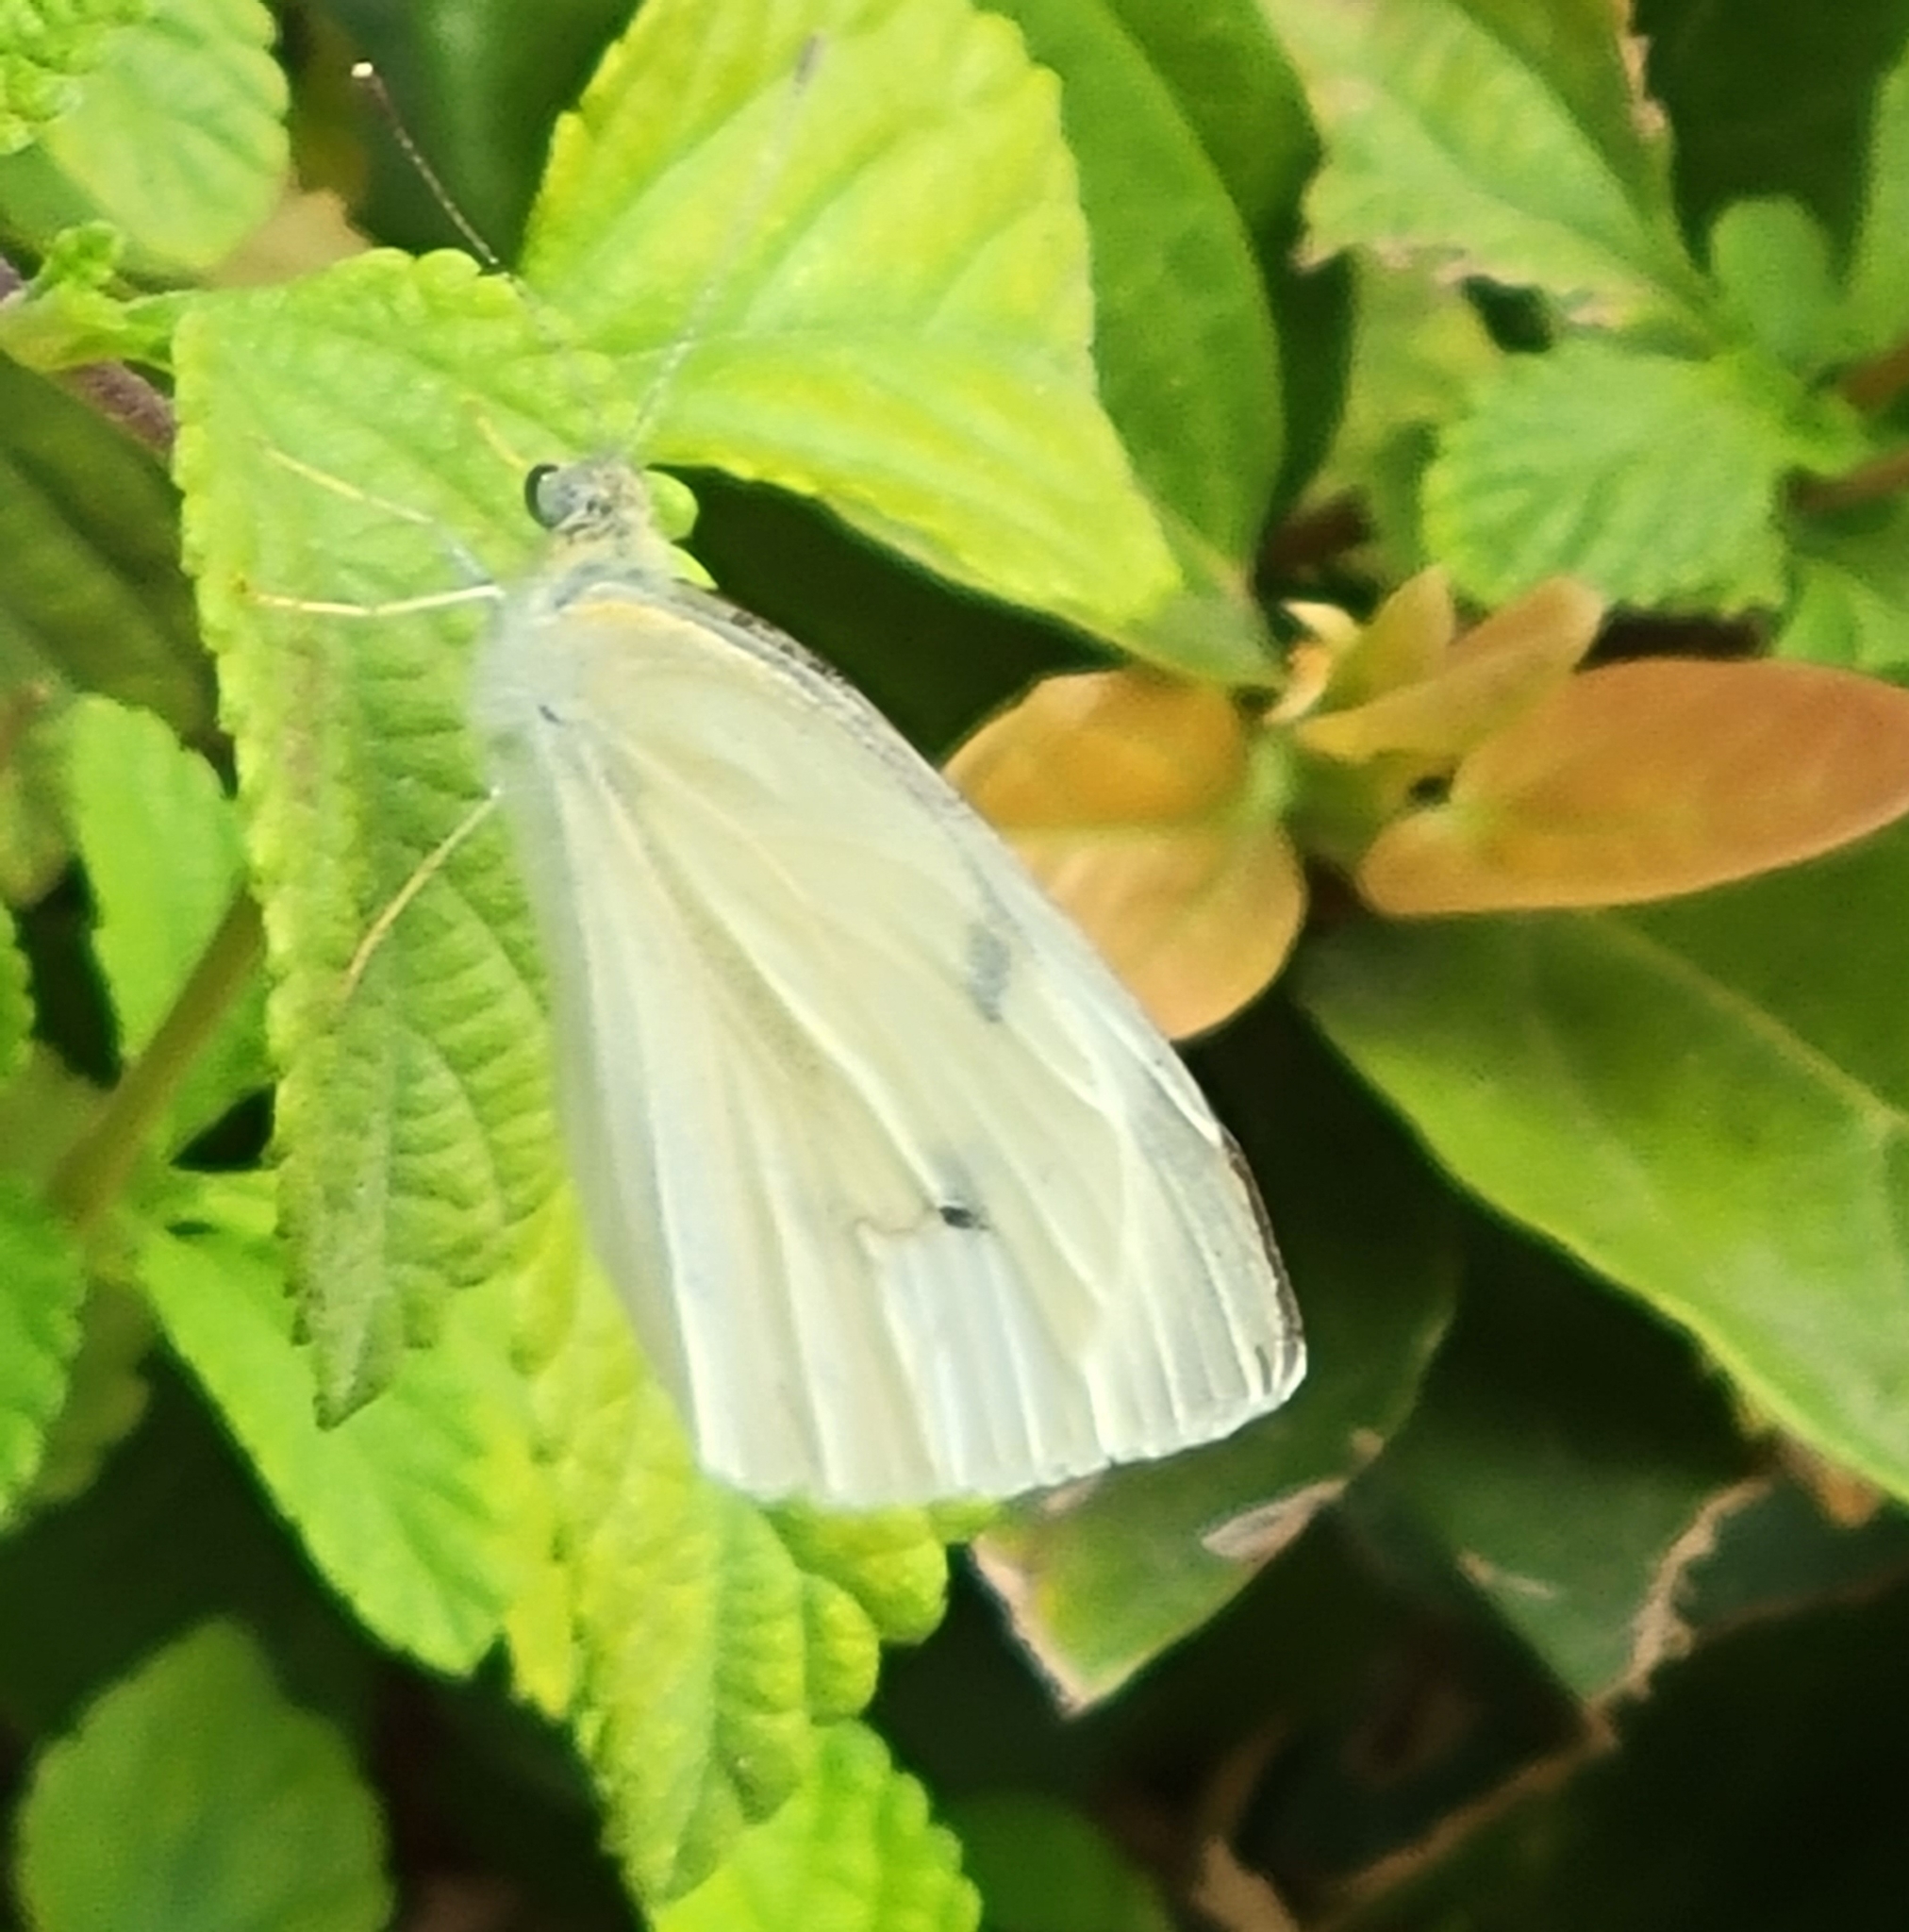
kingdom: Animalia
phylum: Arthropoda
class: Insecta
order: Lepidoptera
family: Pieridae
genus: Pieris
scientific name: Pieris rapae
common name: Small white
